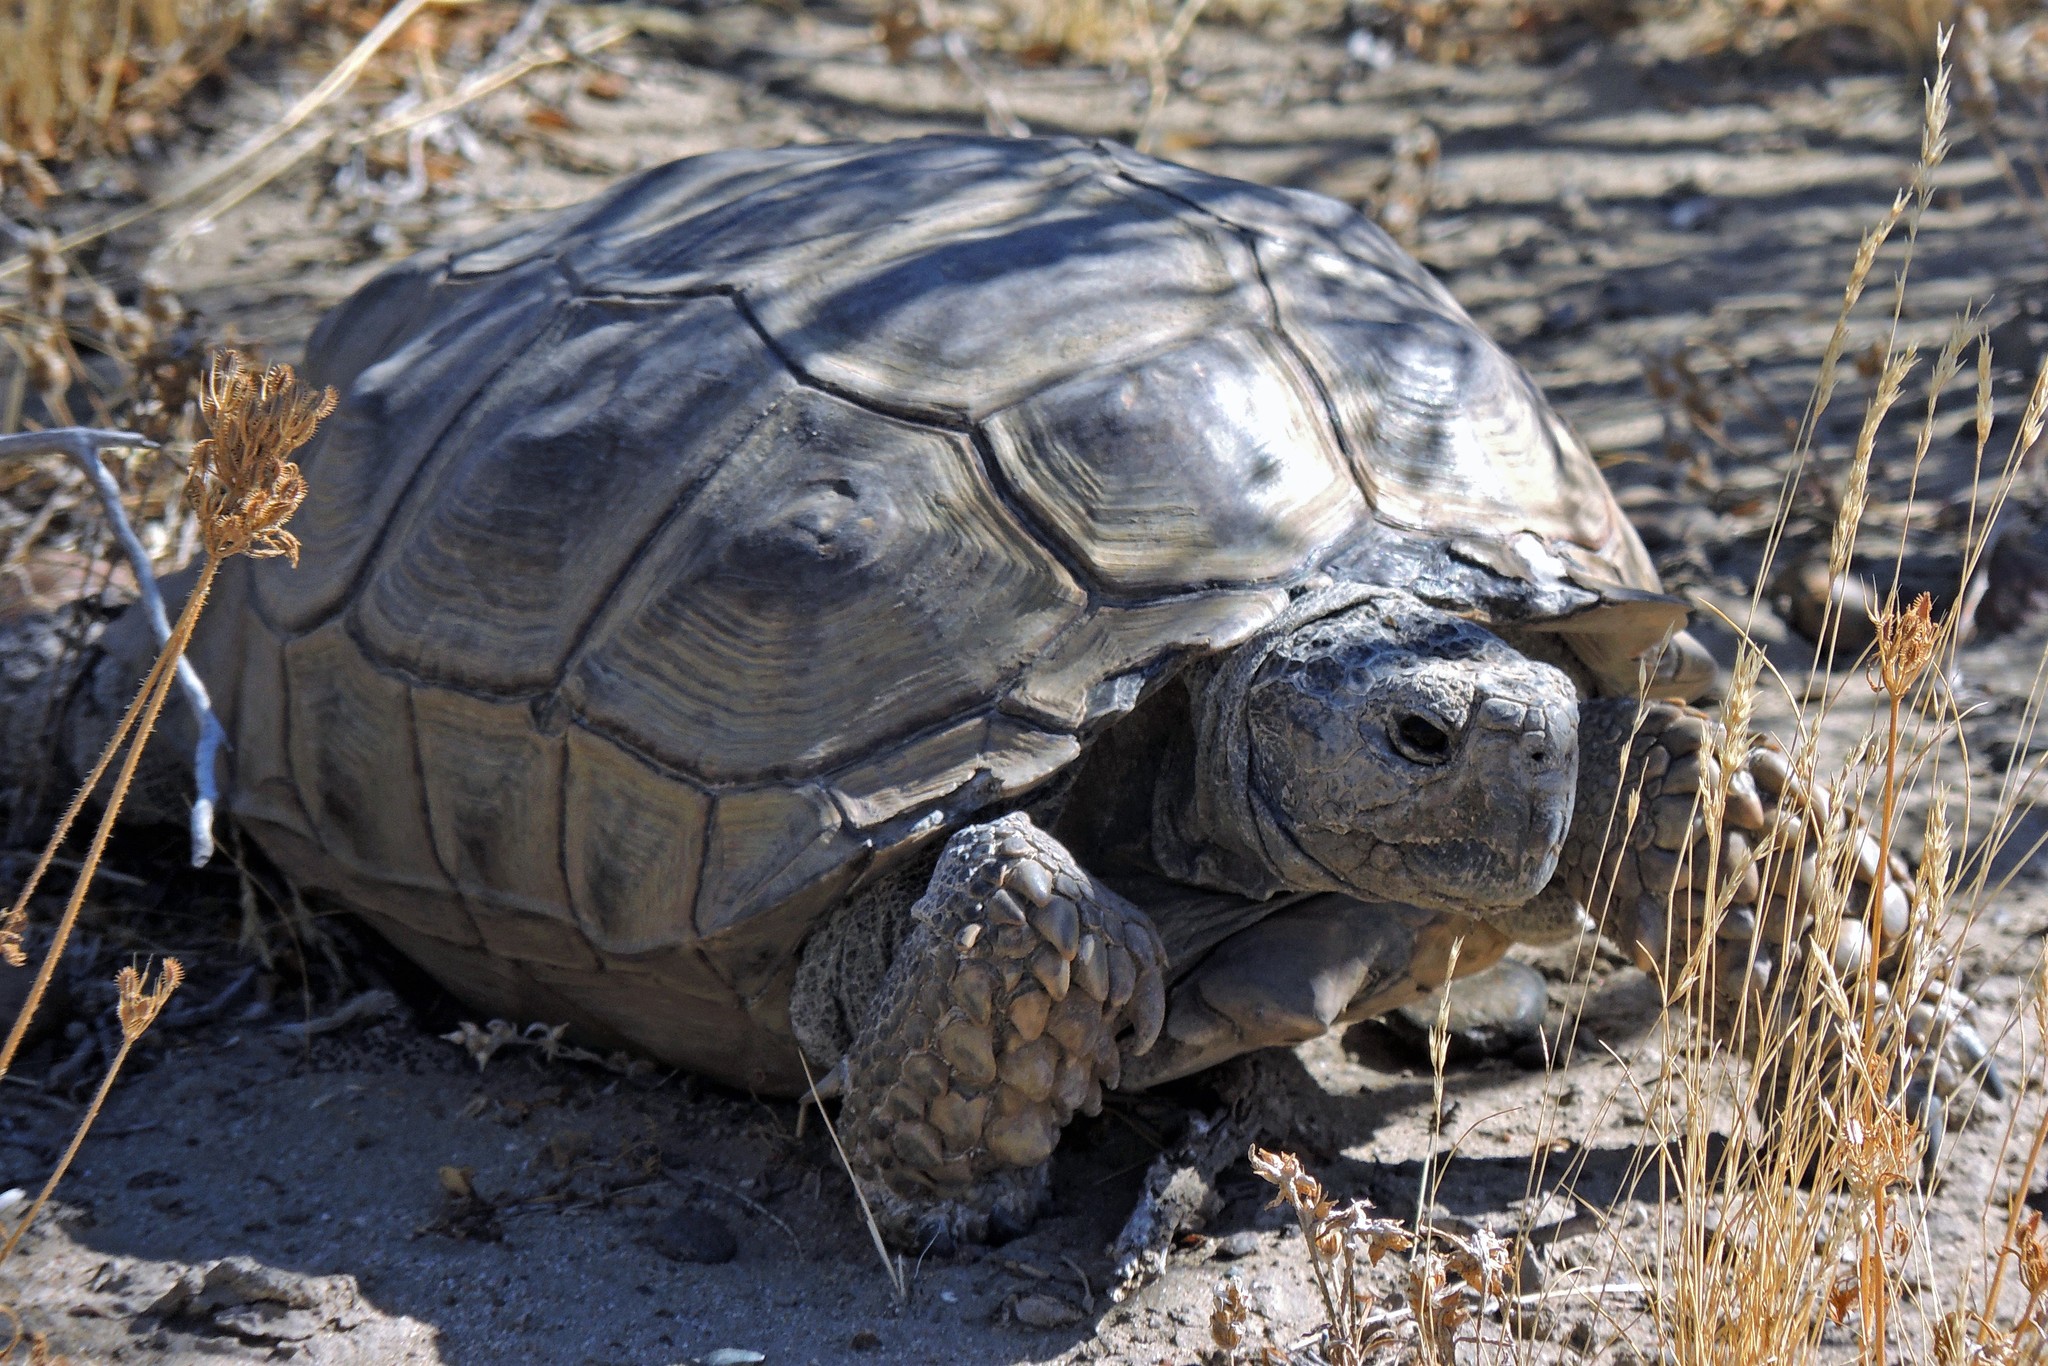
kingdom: Animalia
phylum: Chordata
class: Testudines
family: Testudinidae
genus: Chelonoidis
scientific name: Chelonoidis chilensis
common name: Chaco tortoise
